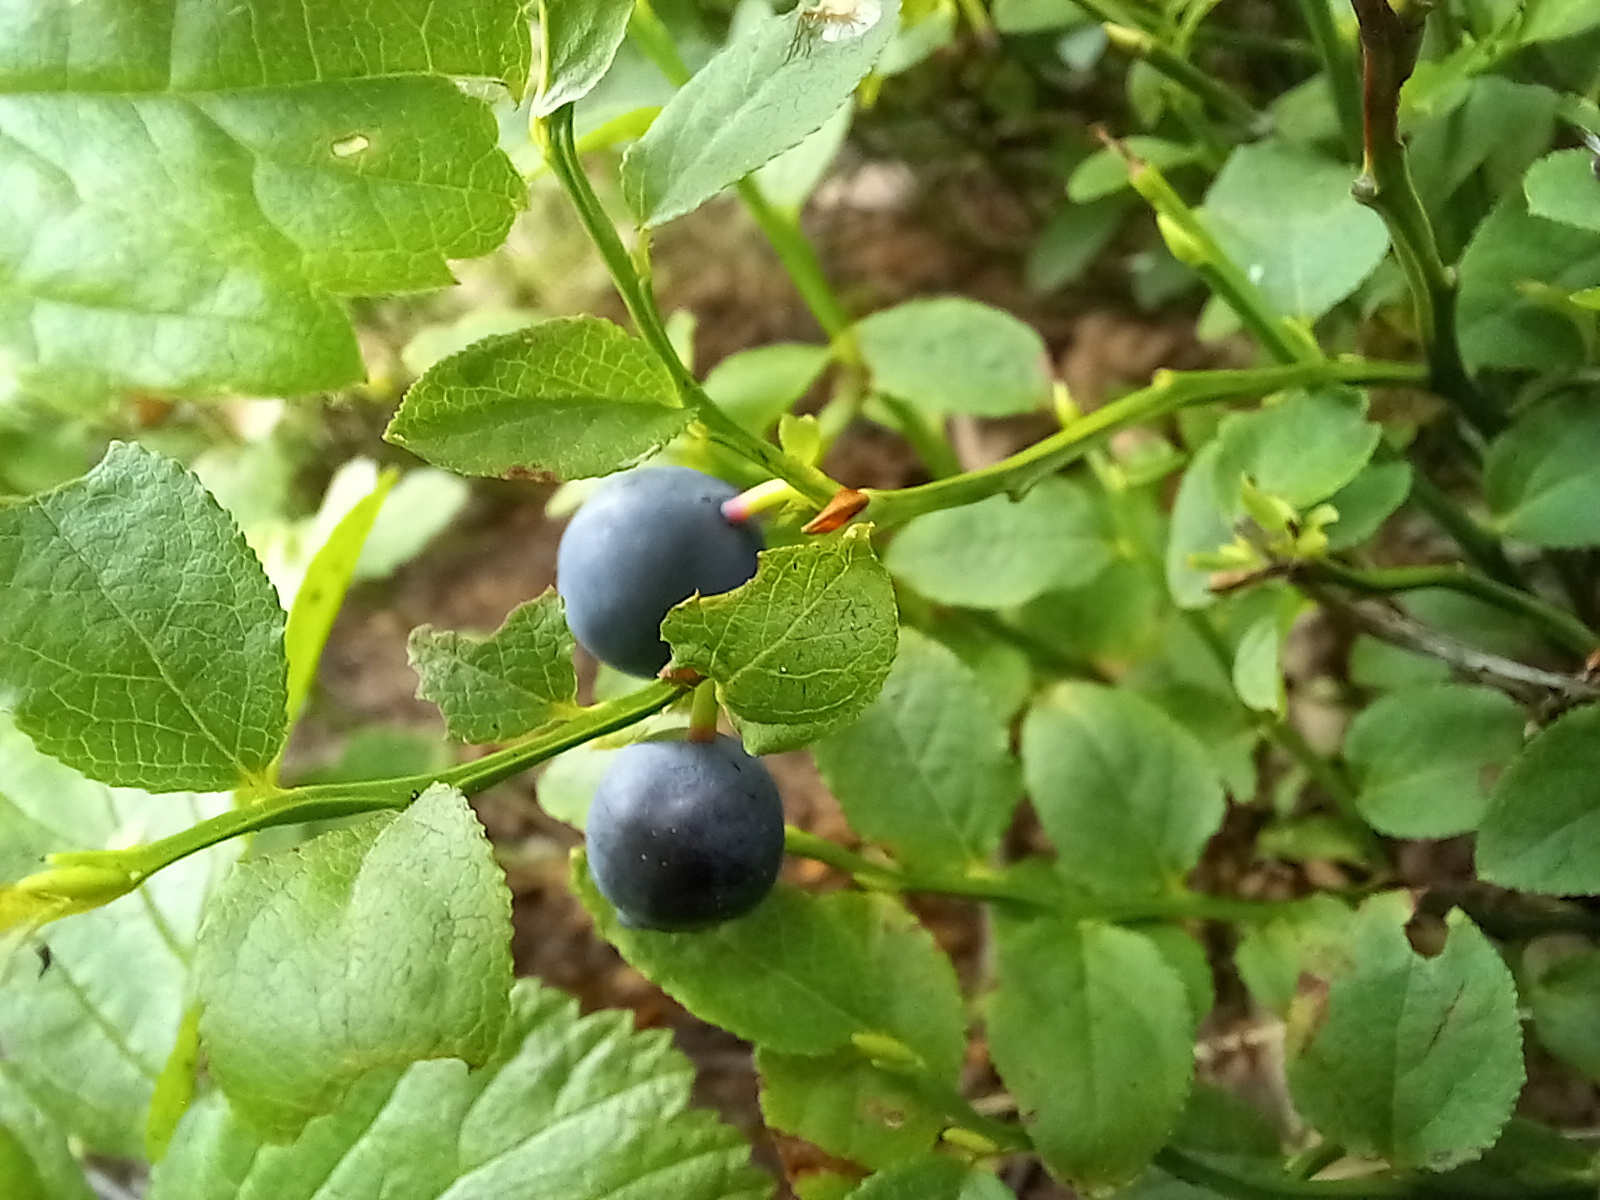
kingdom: Plantae
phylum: Tracheophyta
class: Magnoliopsida
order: Ericales
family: Ericaceae
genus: Vaccinium
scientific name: Vaccinium myrtillus
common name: Bilberry
